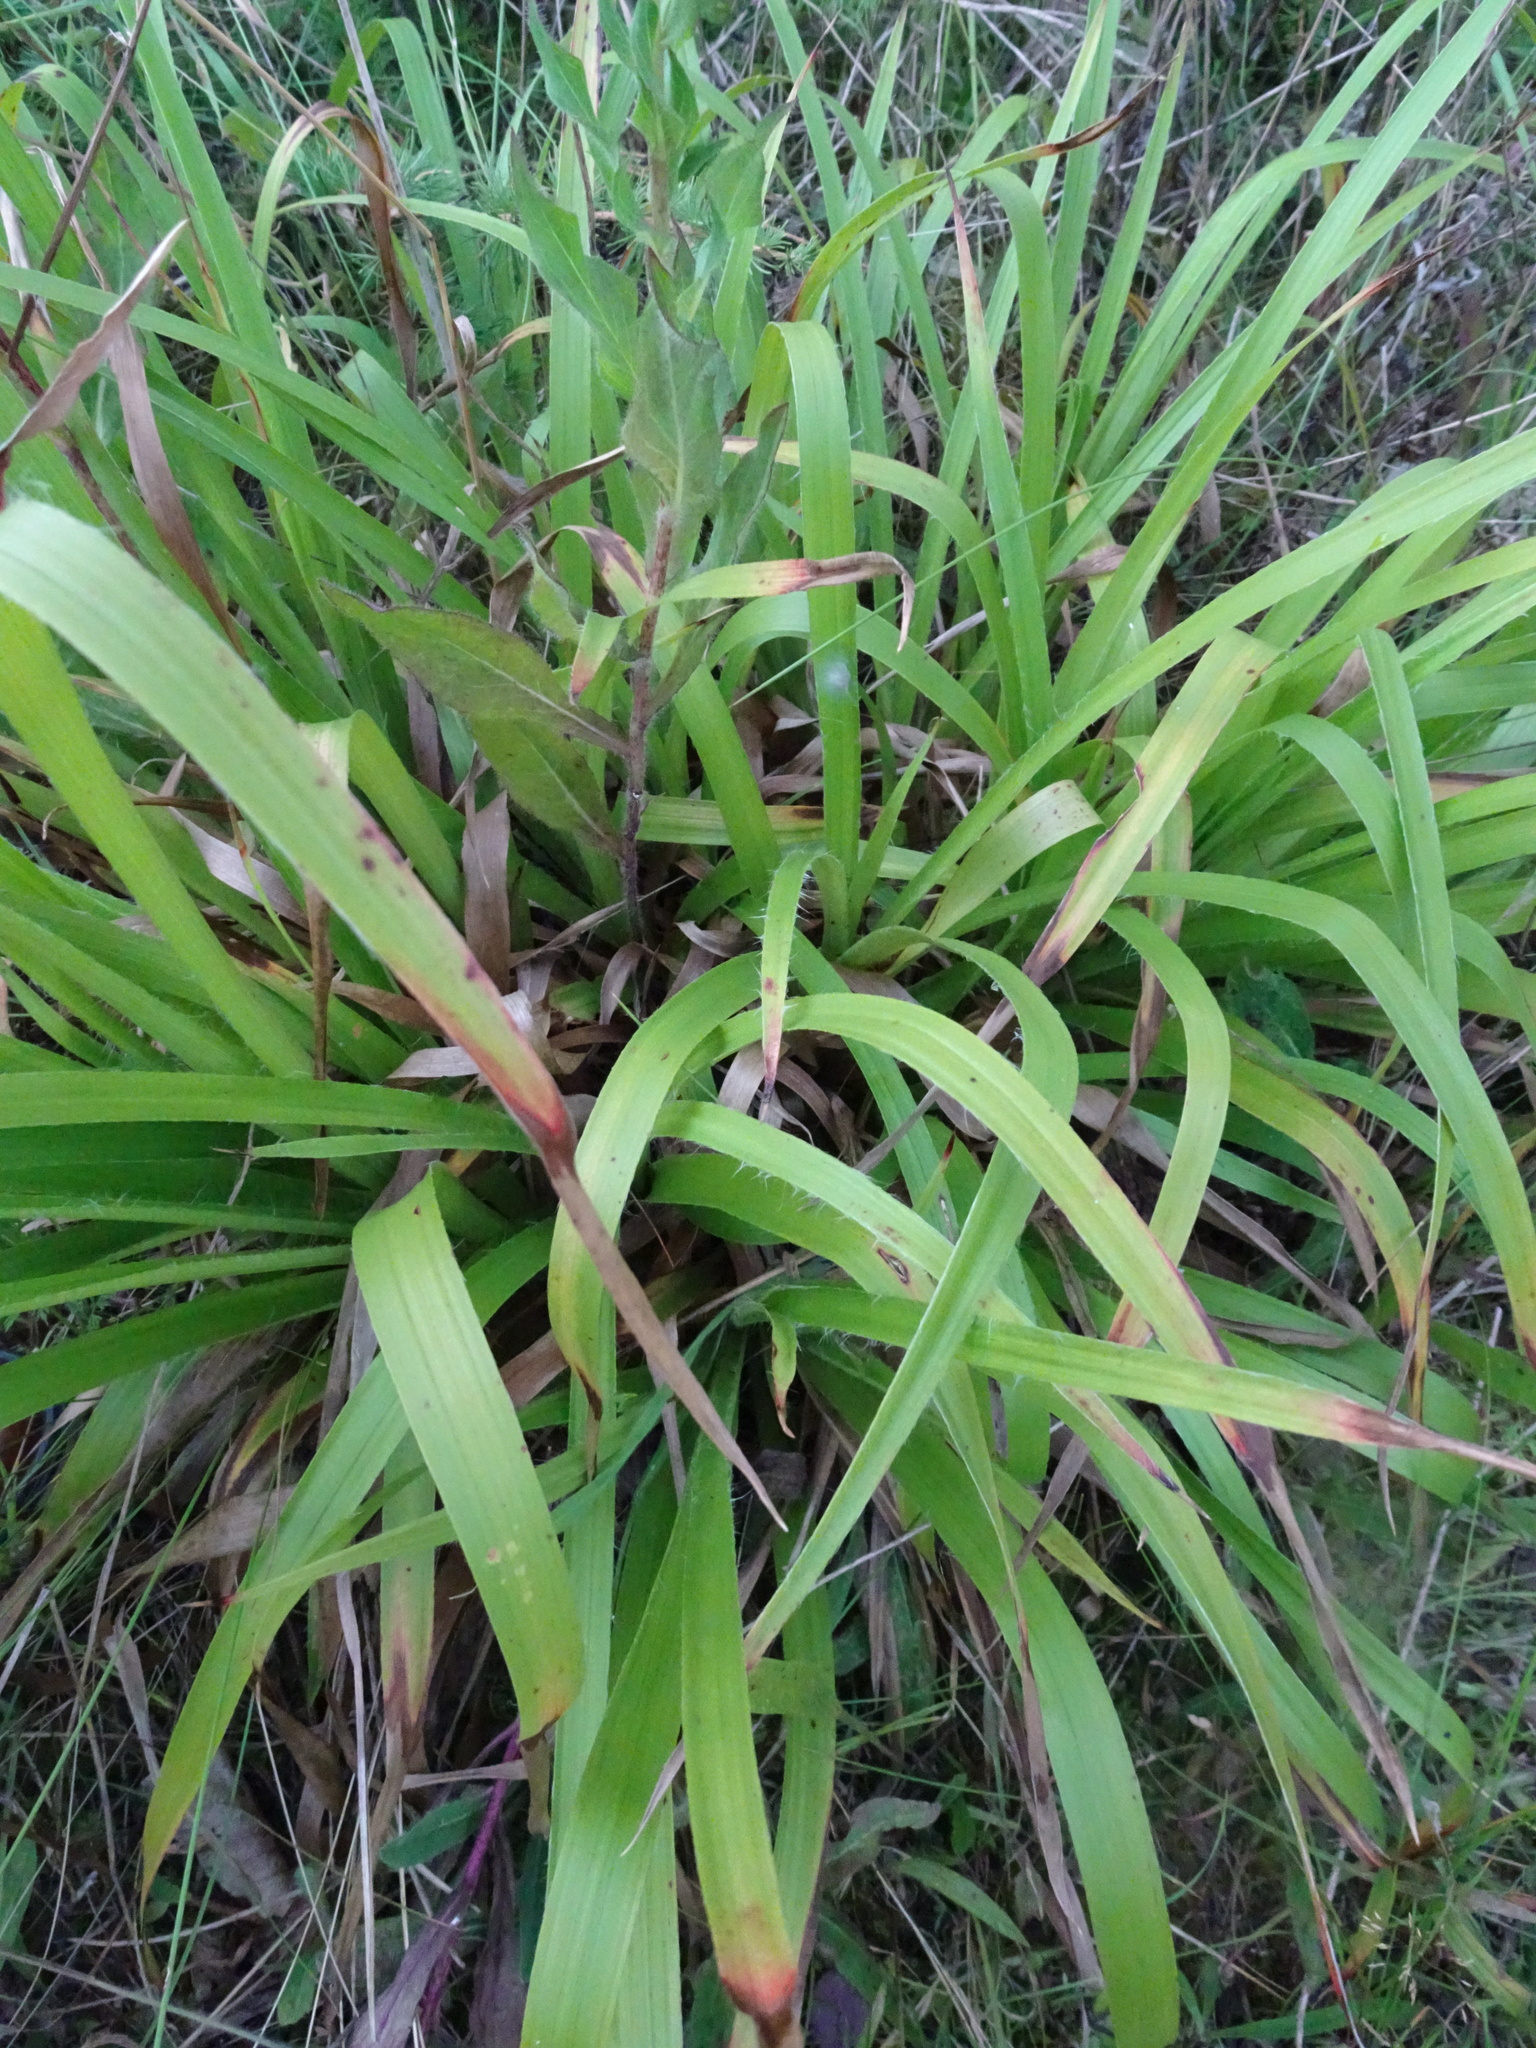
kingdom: Plantae
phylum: Tracheophyta
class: Liliopsida
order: Poales
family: Juncaceae
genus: Luzula
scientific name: Luzula sylvatica
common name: Great wood-rush
